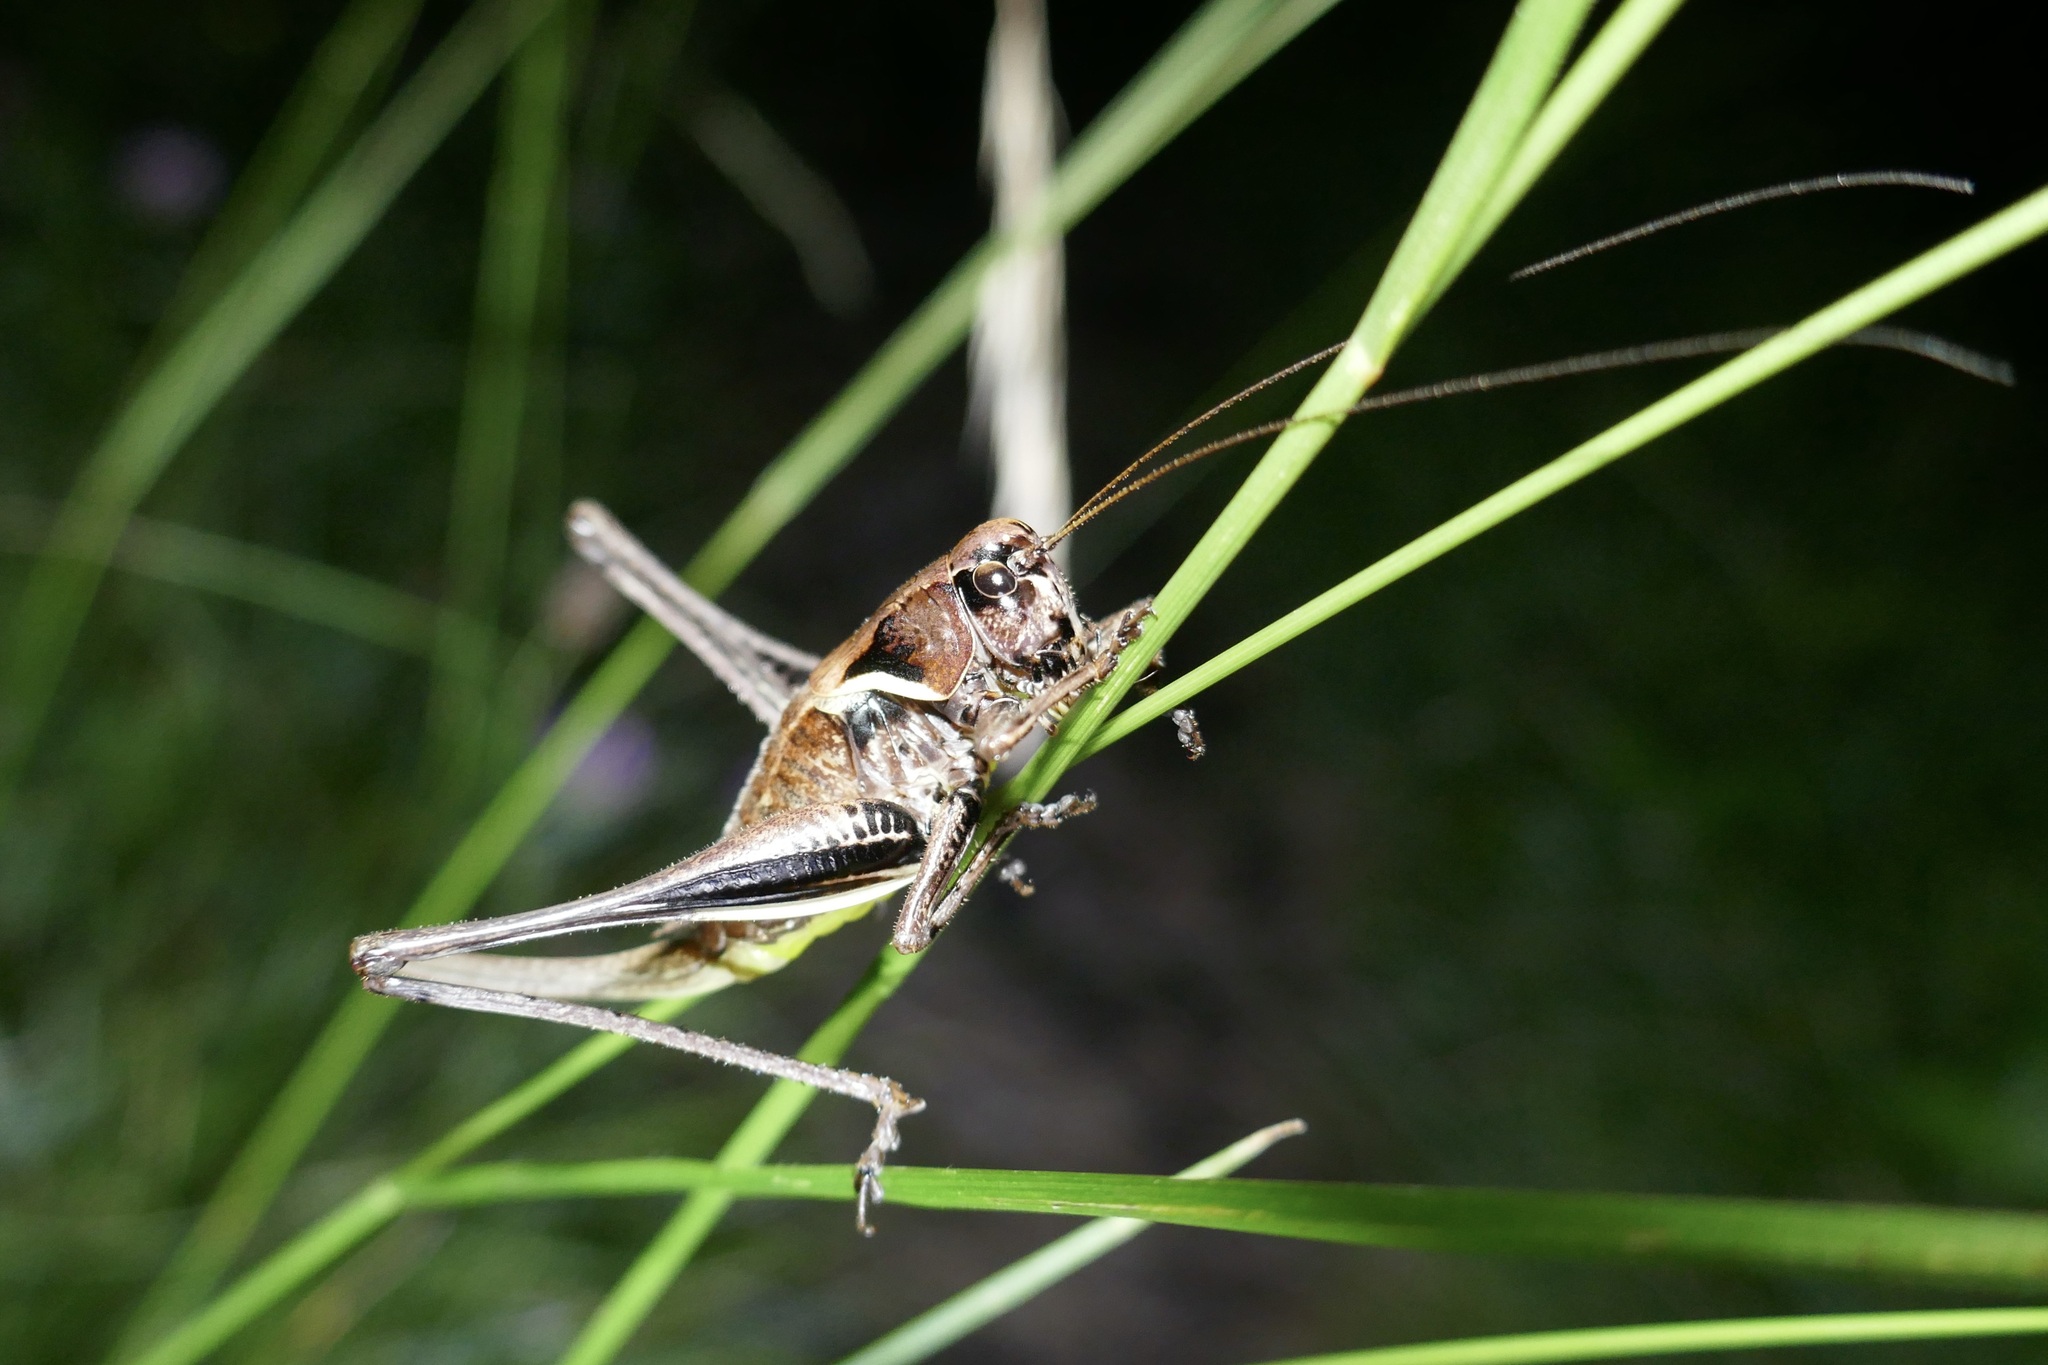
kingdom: Animalia
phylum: Arthropoda
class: Insecta
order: Orthoptera
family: Tettigoniidae
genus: Pholidoptera
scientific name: Pholidoptera aptera
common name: Alpine dark bush-cricket
